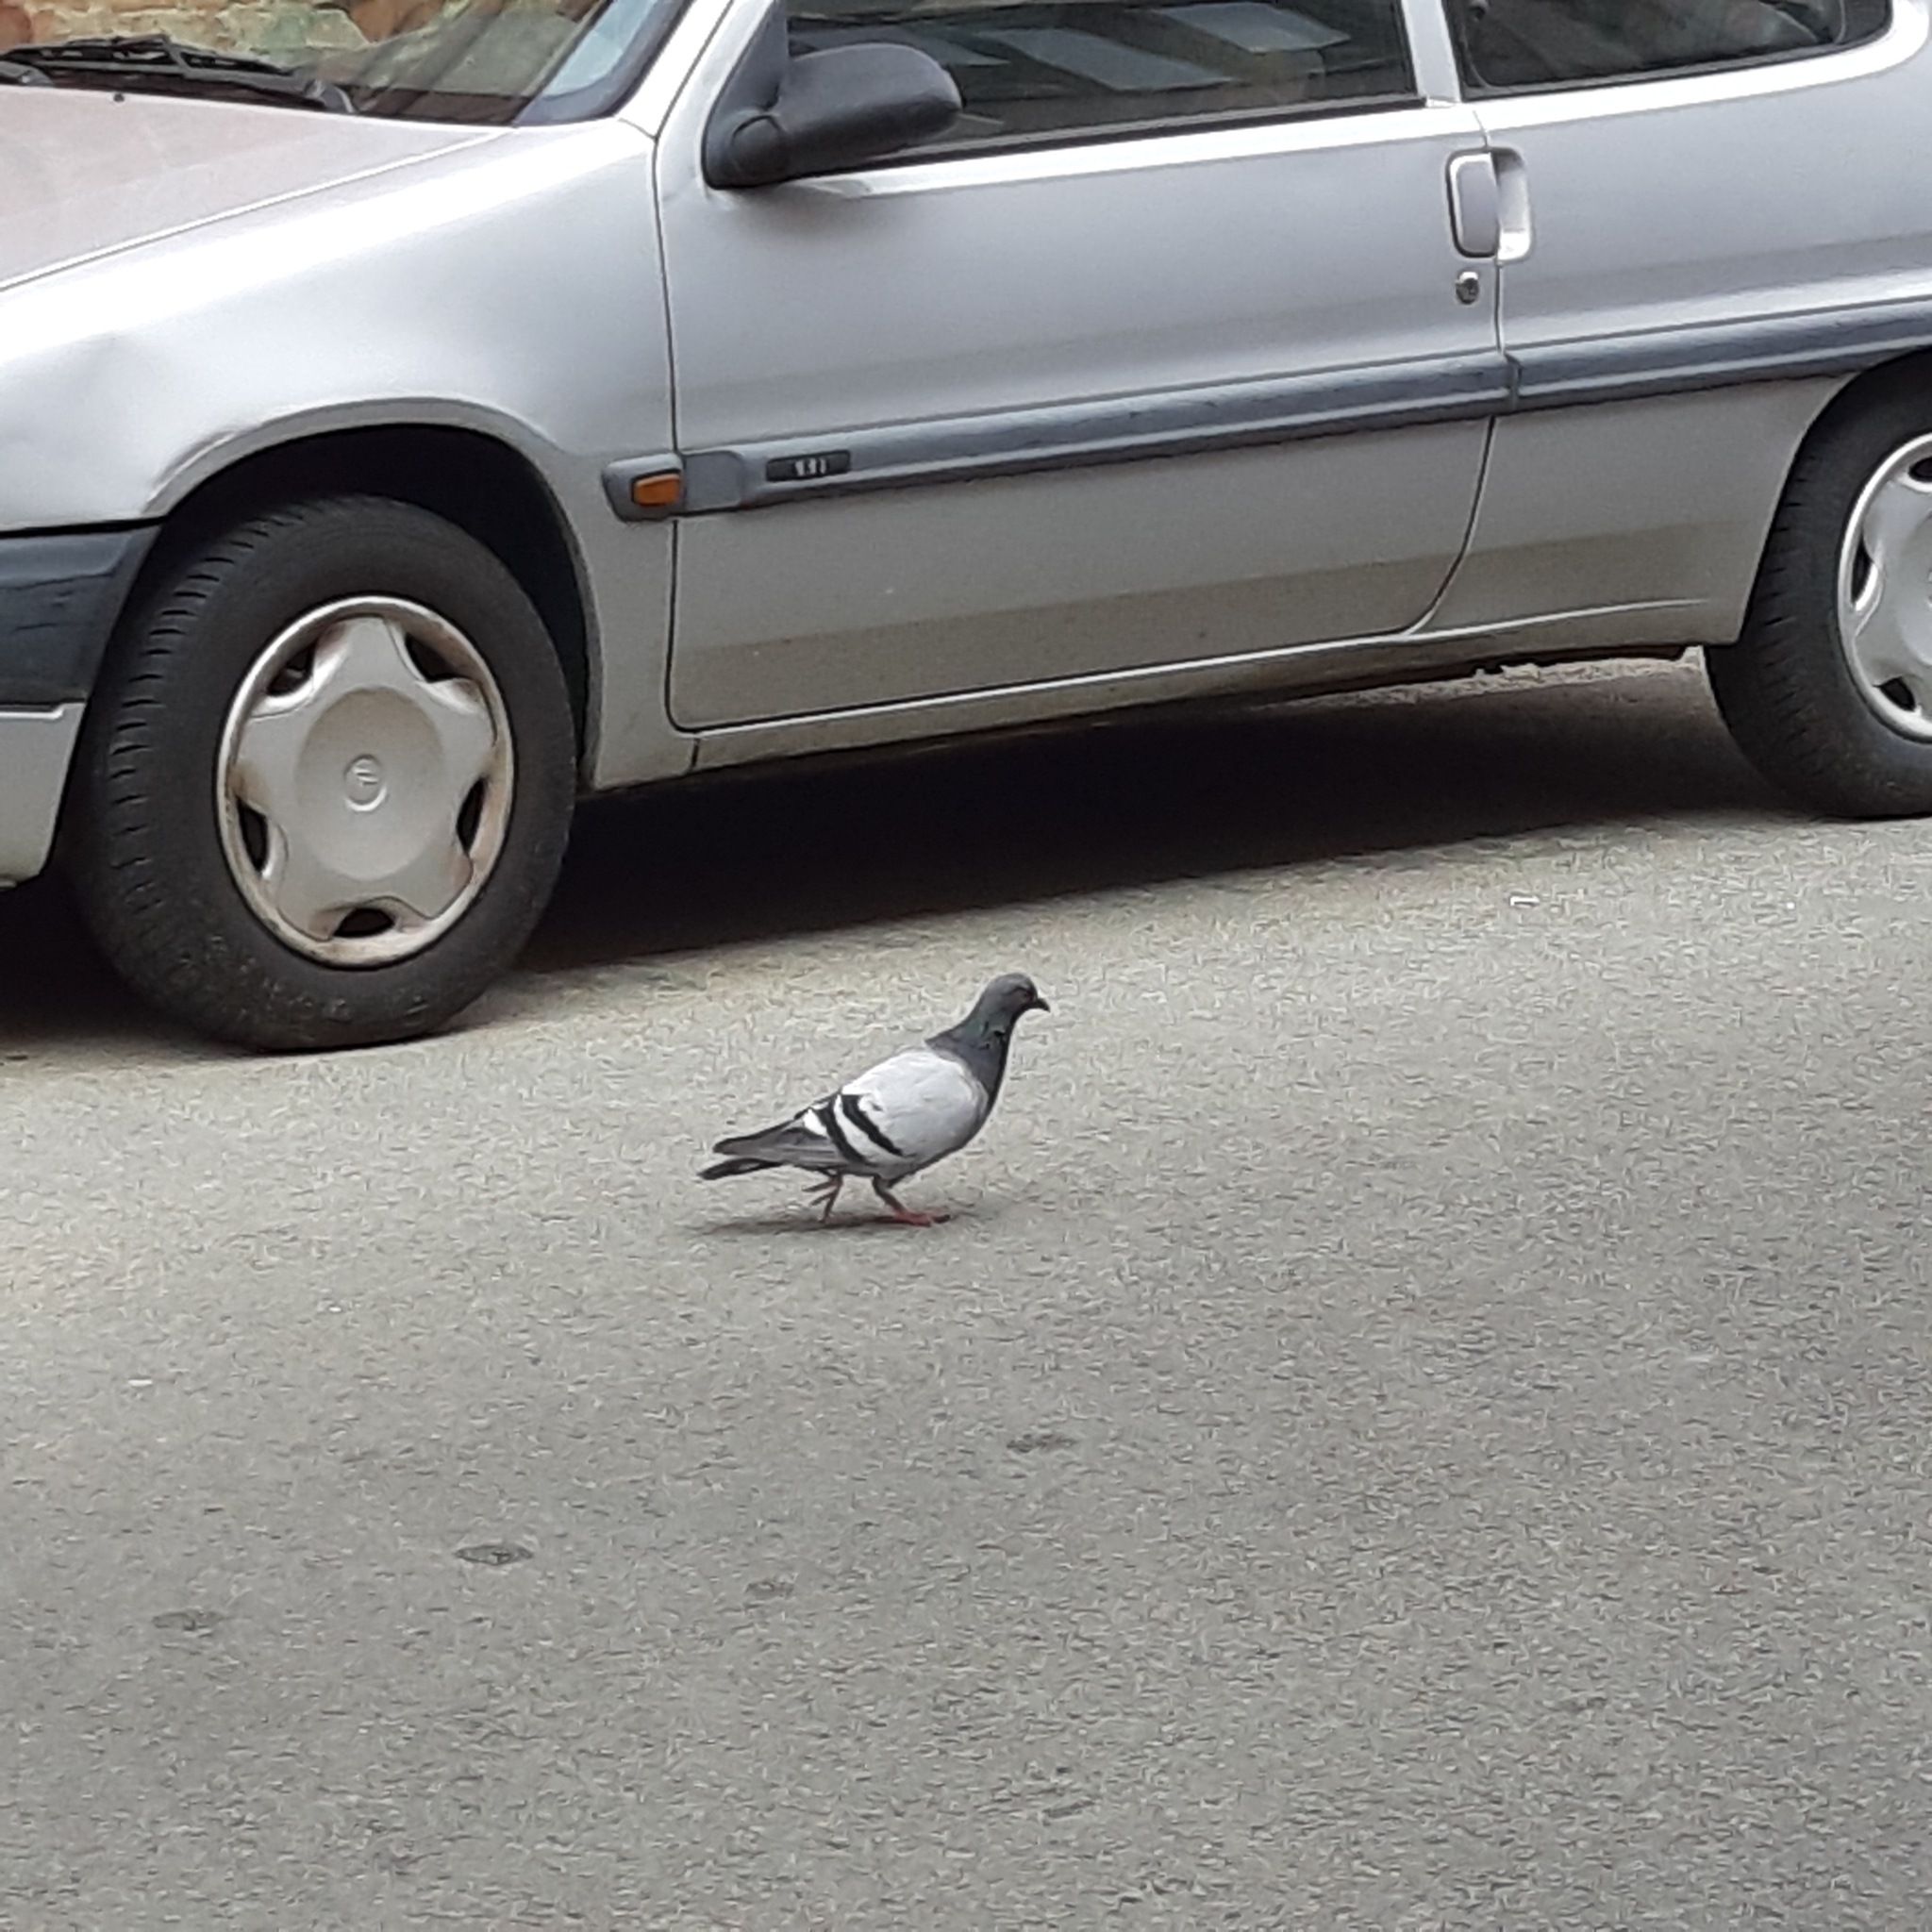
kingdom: Animalia
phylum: Chordata
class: Aves
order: Columbiformes
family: Columbidae
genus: Columba
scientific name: Columba livia
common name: Rock pigeon
